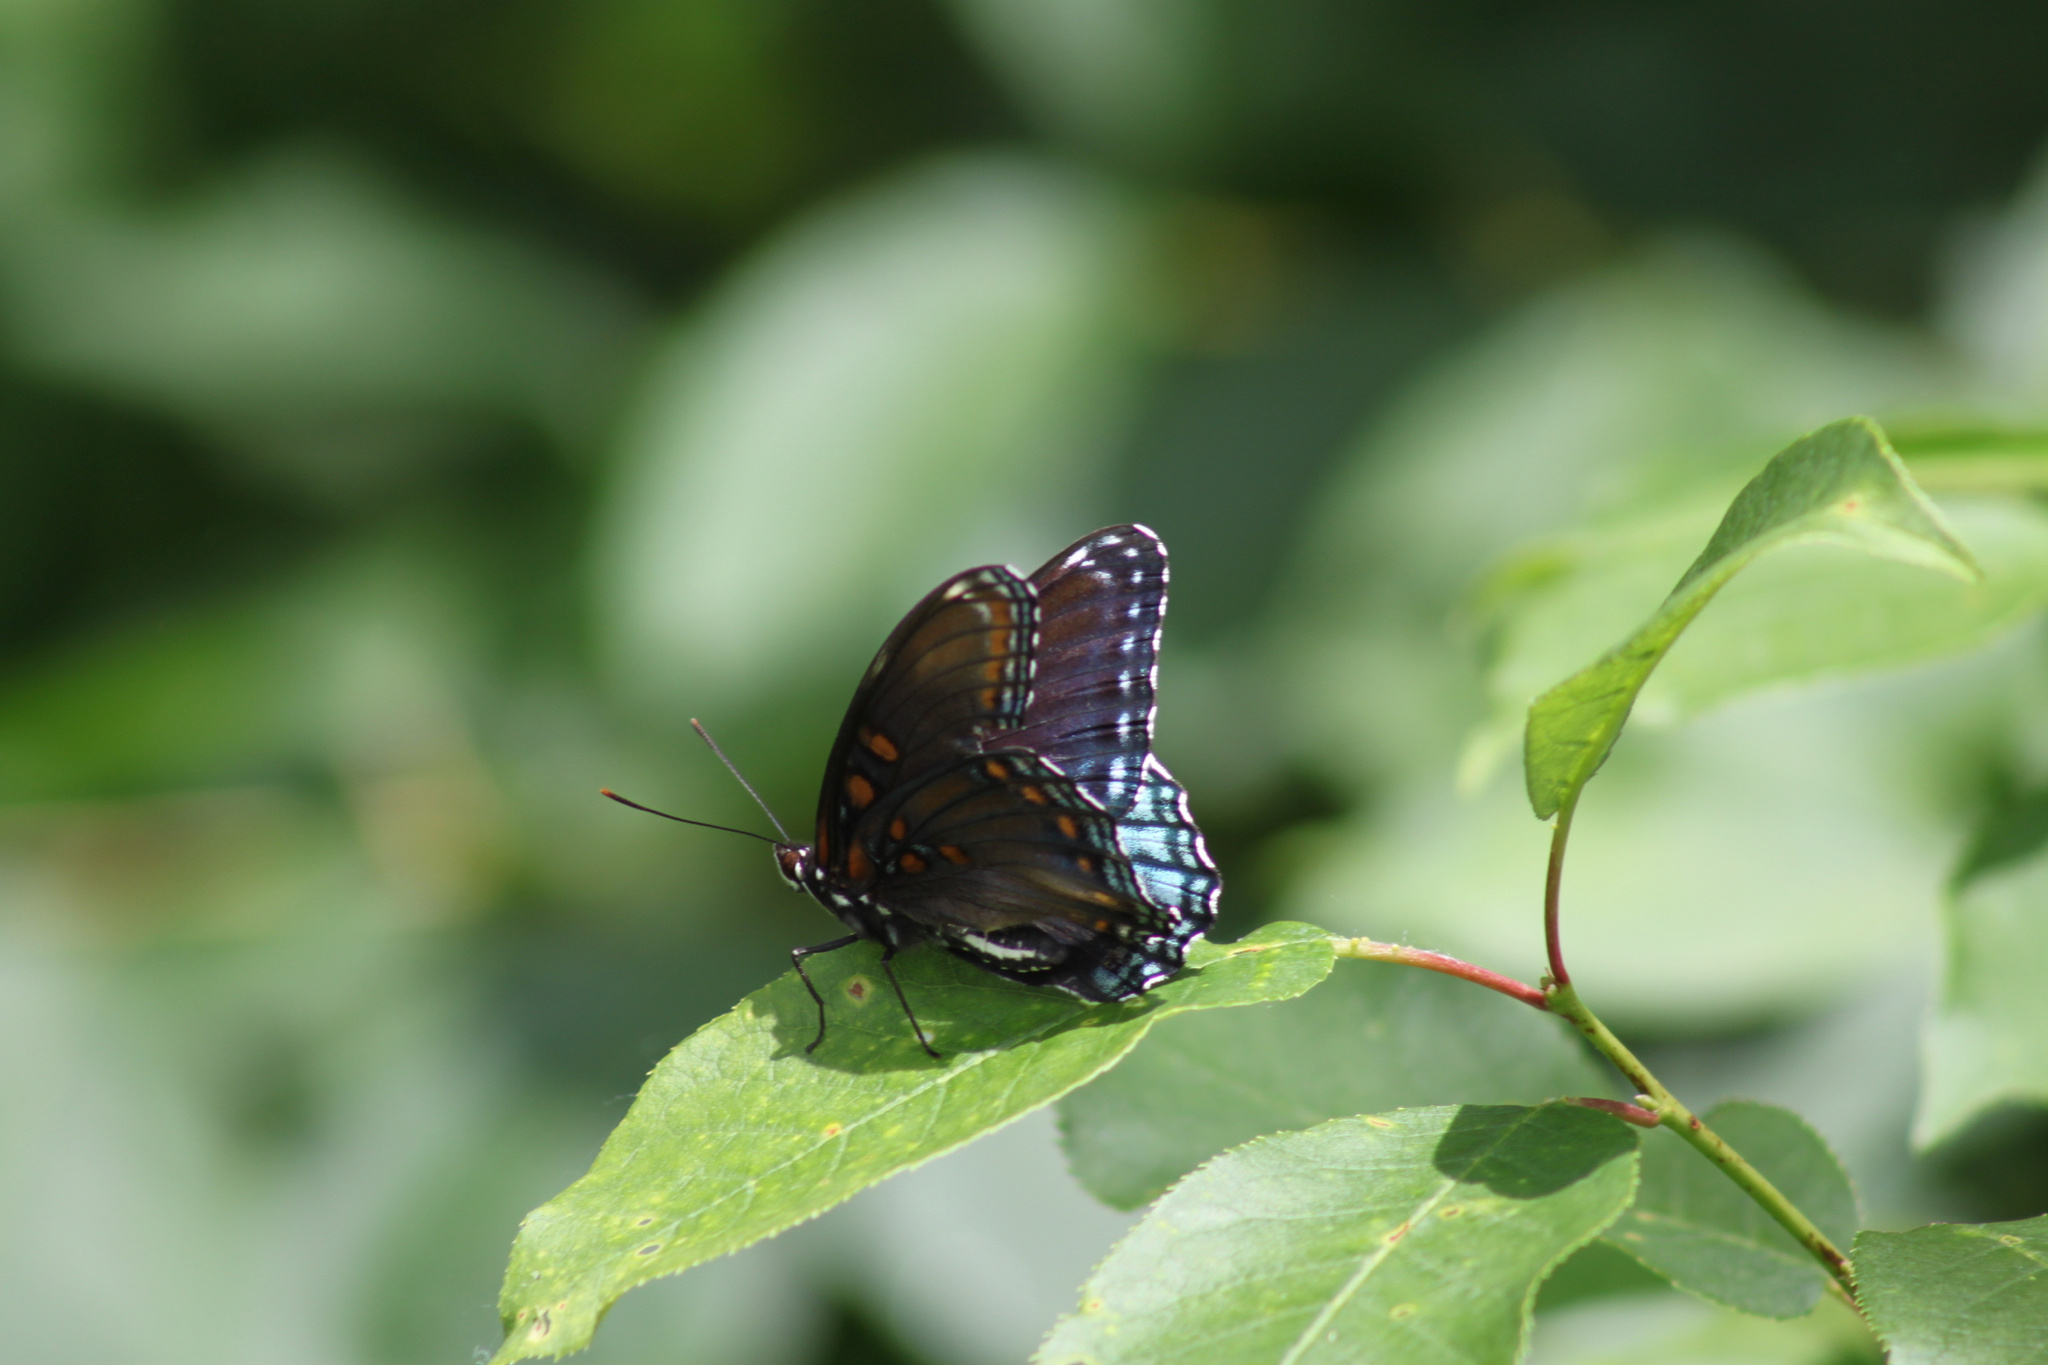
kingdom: Animalia
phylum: Arthropoda
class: Insecta
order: Lepidoptera
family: Nymphalidae
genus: Limenitis
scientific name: Limenitis astyanax
